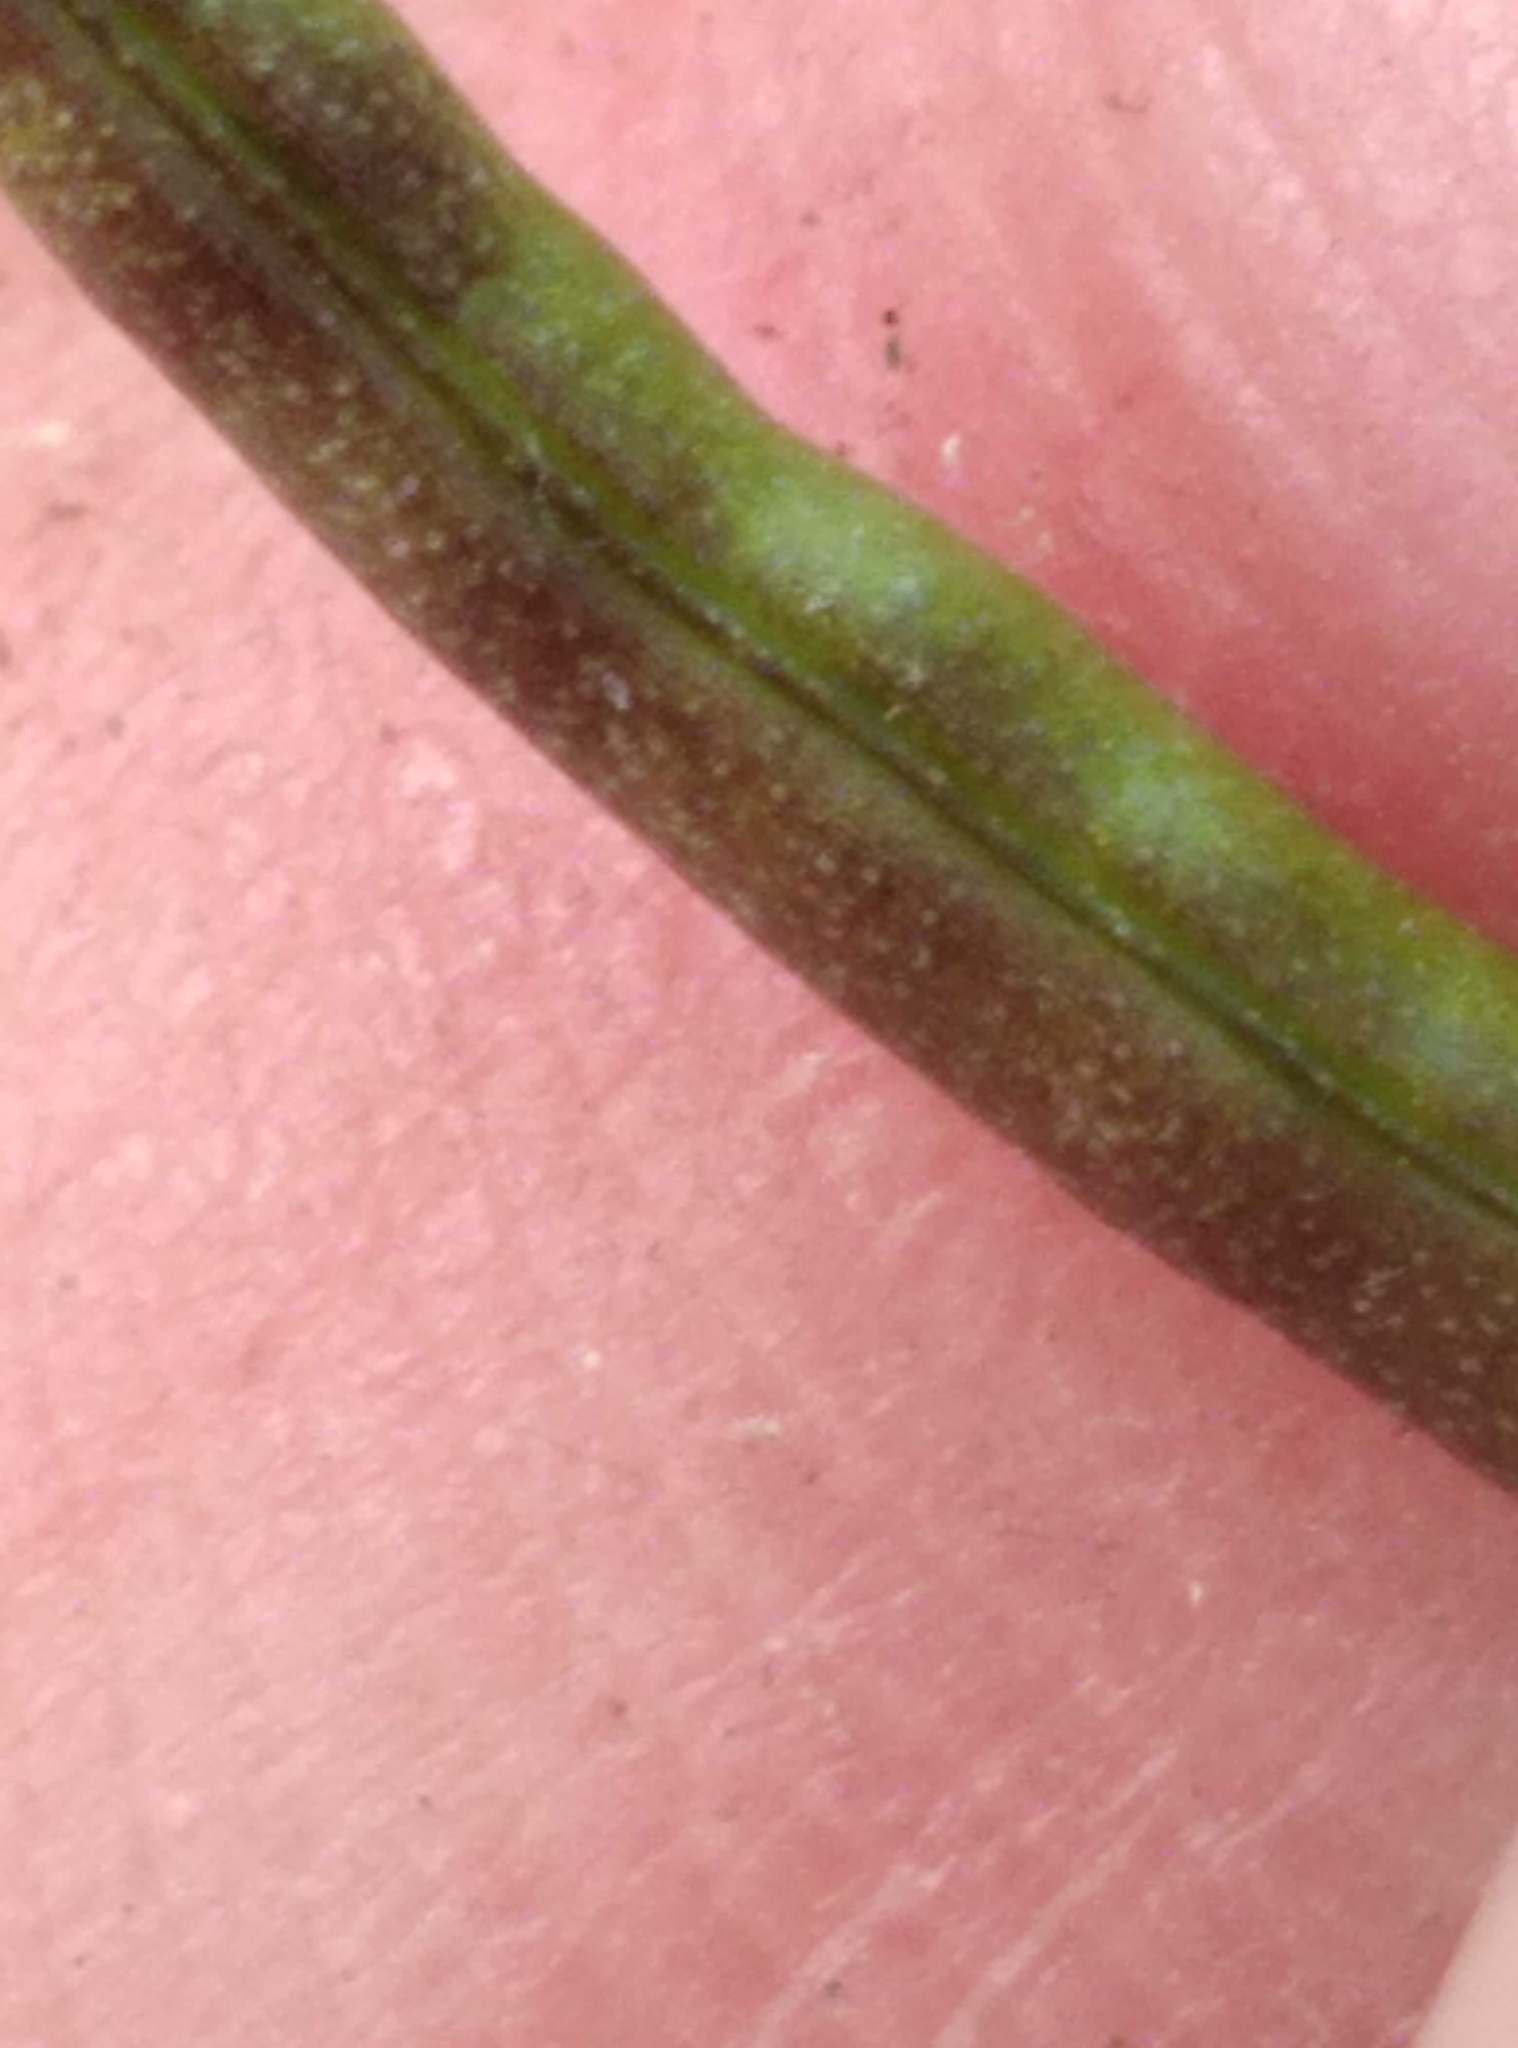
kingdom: Plantae
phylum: Tracheophyta
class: Magnoliopsida
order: Brassicales
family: Brassicaceae
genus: Nasturtium
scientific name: Nasturtium officinale
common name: Watercress
